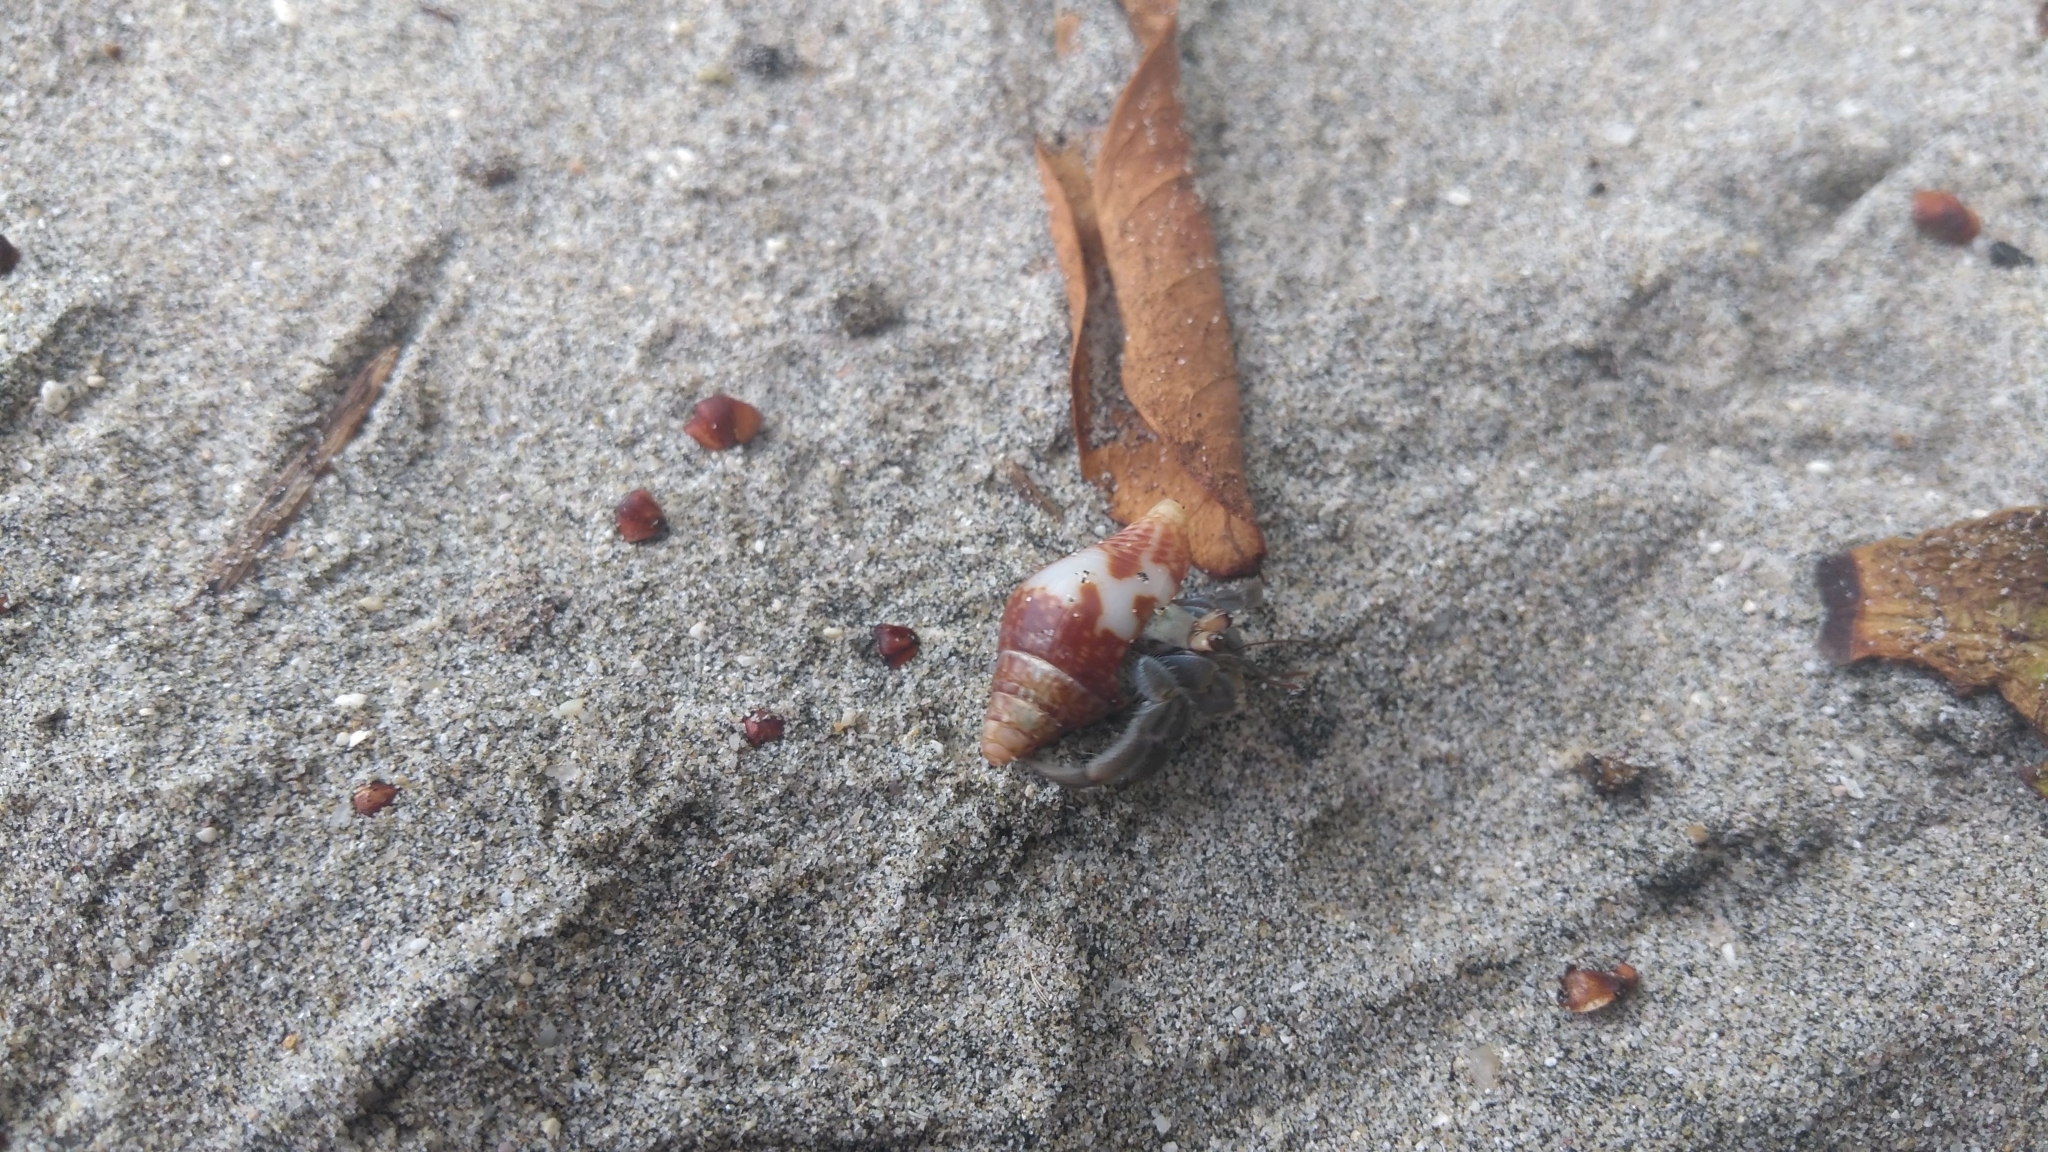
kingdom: Animalia
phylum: Arthropoda
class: Malacostraca
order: Decapoda
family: Coenobitidae
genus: Coenobita
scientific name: Coenobita compressus
